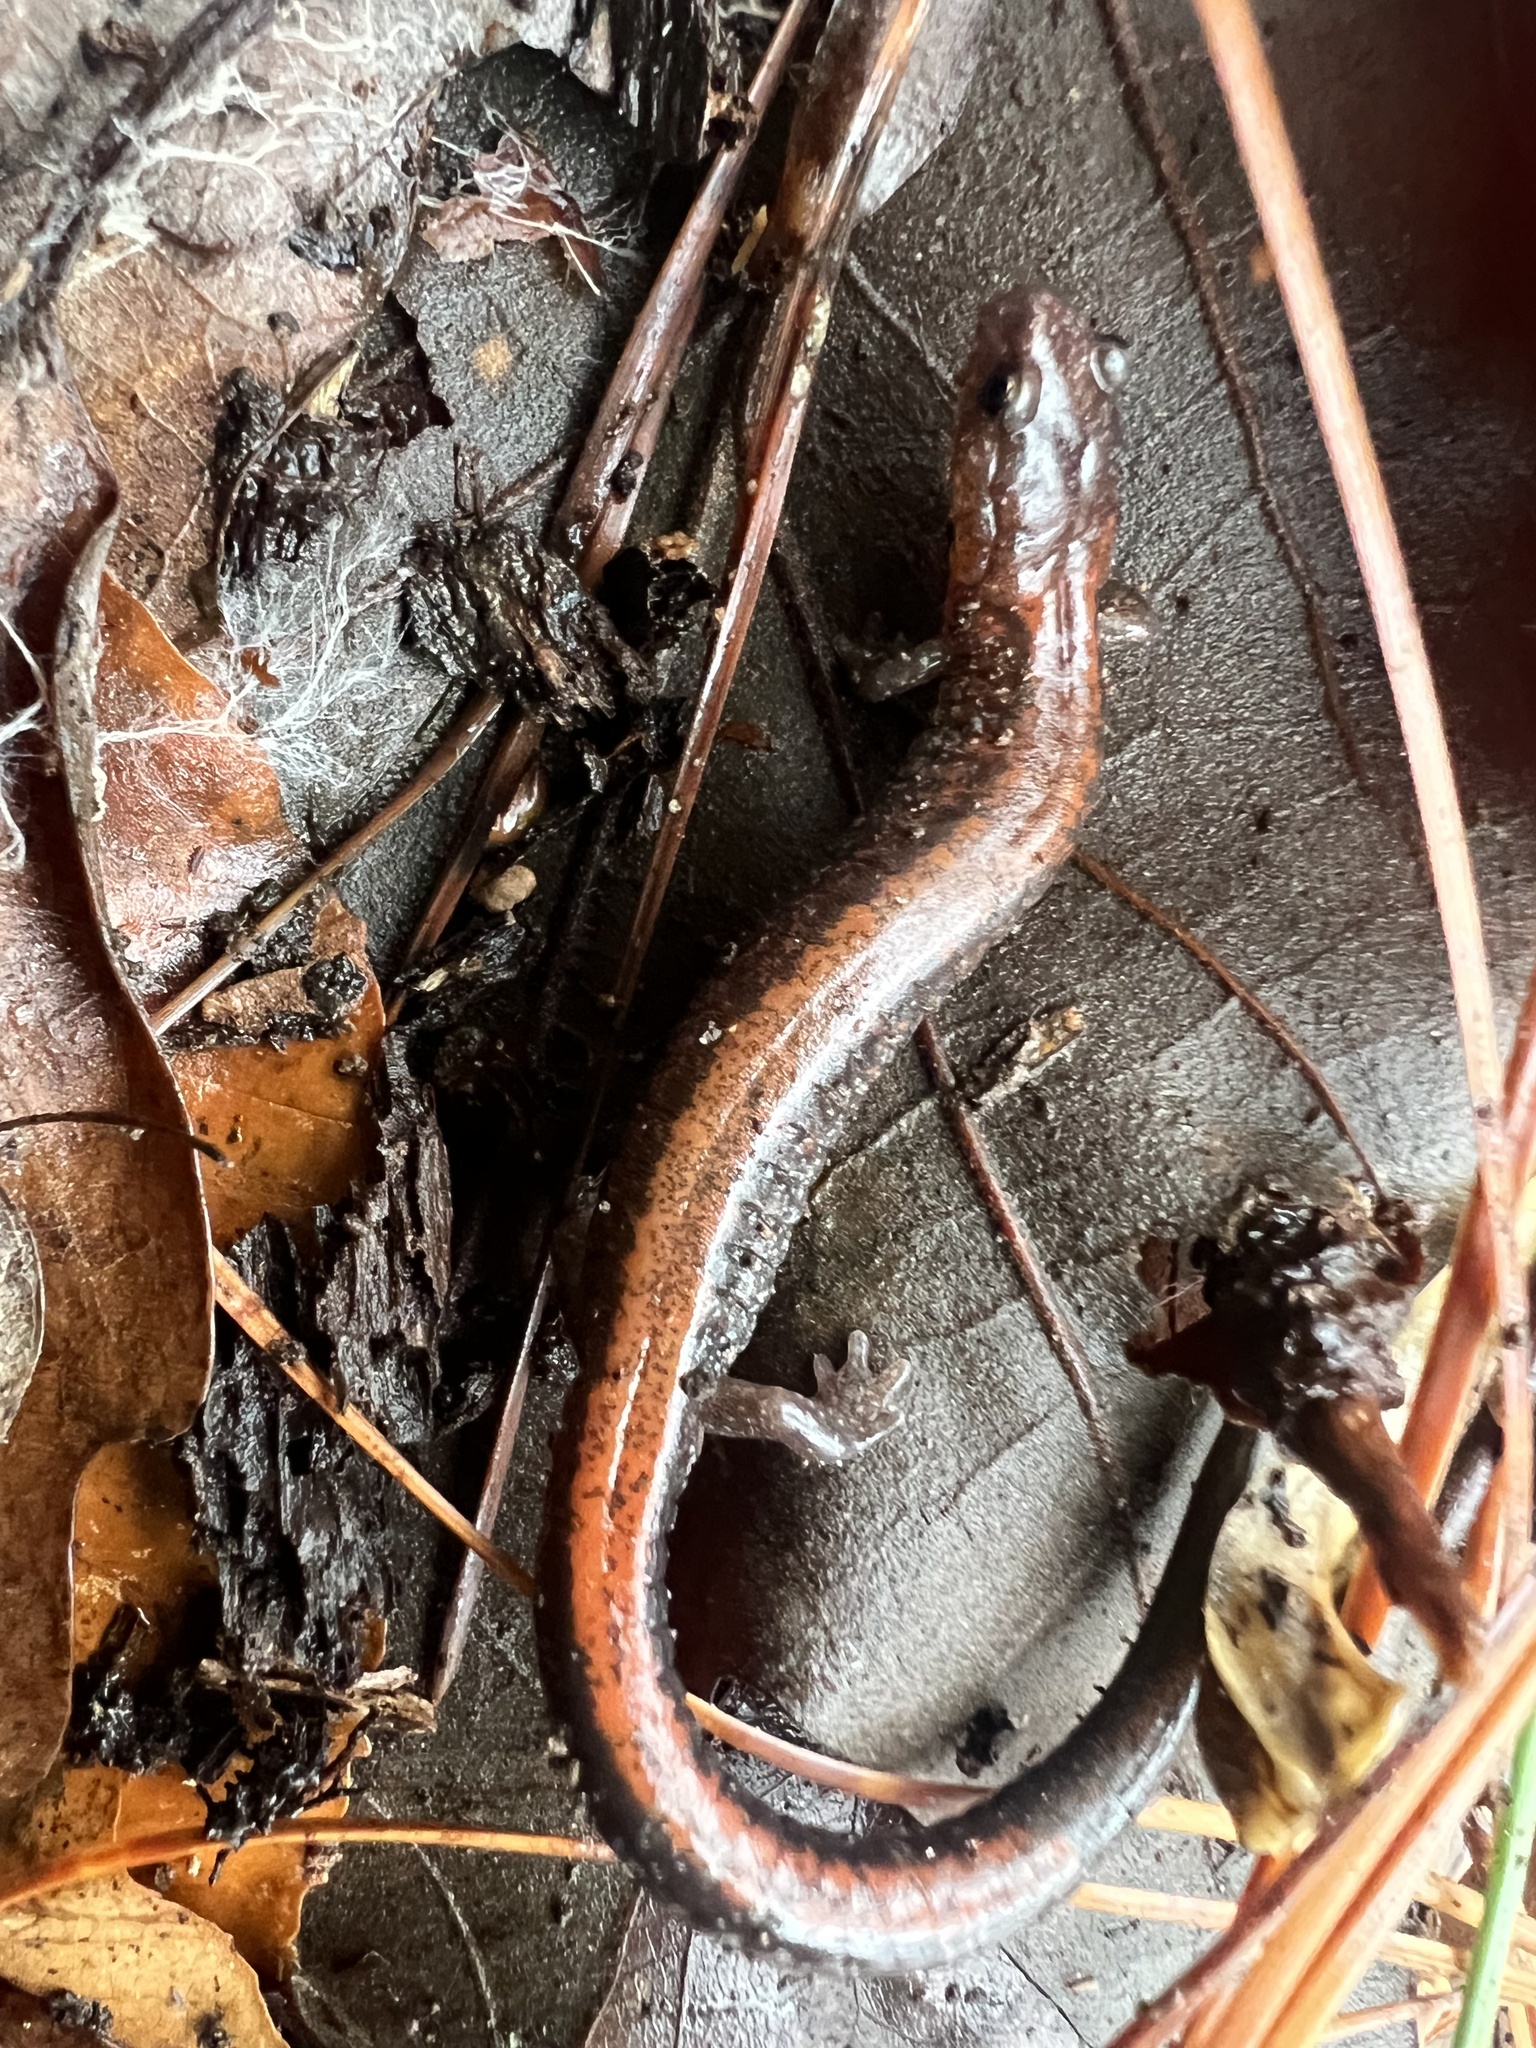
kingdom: Animalia
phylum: Chordata
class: Amphibia
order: Caudata
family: Plethodontidae
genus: Plethodon
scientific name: Plethodon cinereus
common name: Redback salamander
